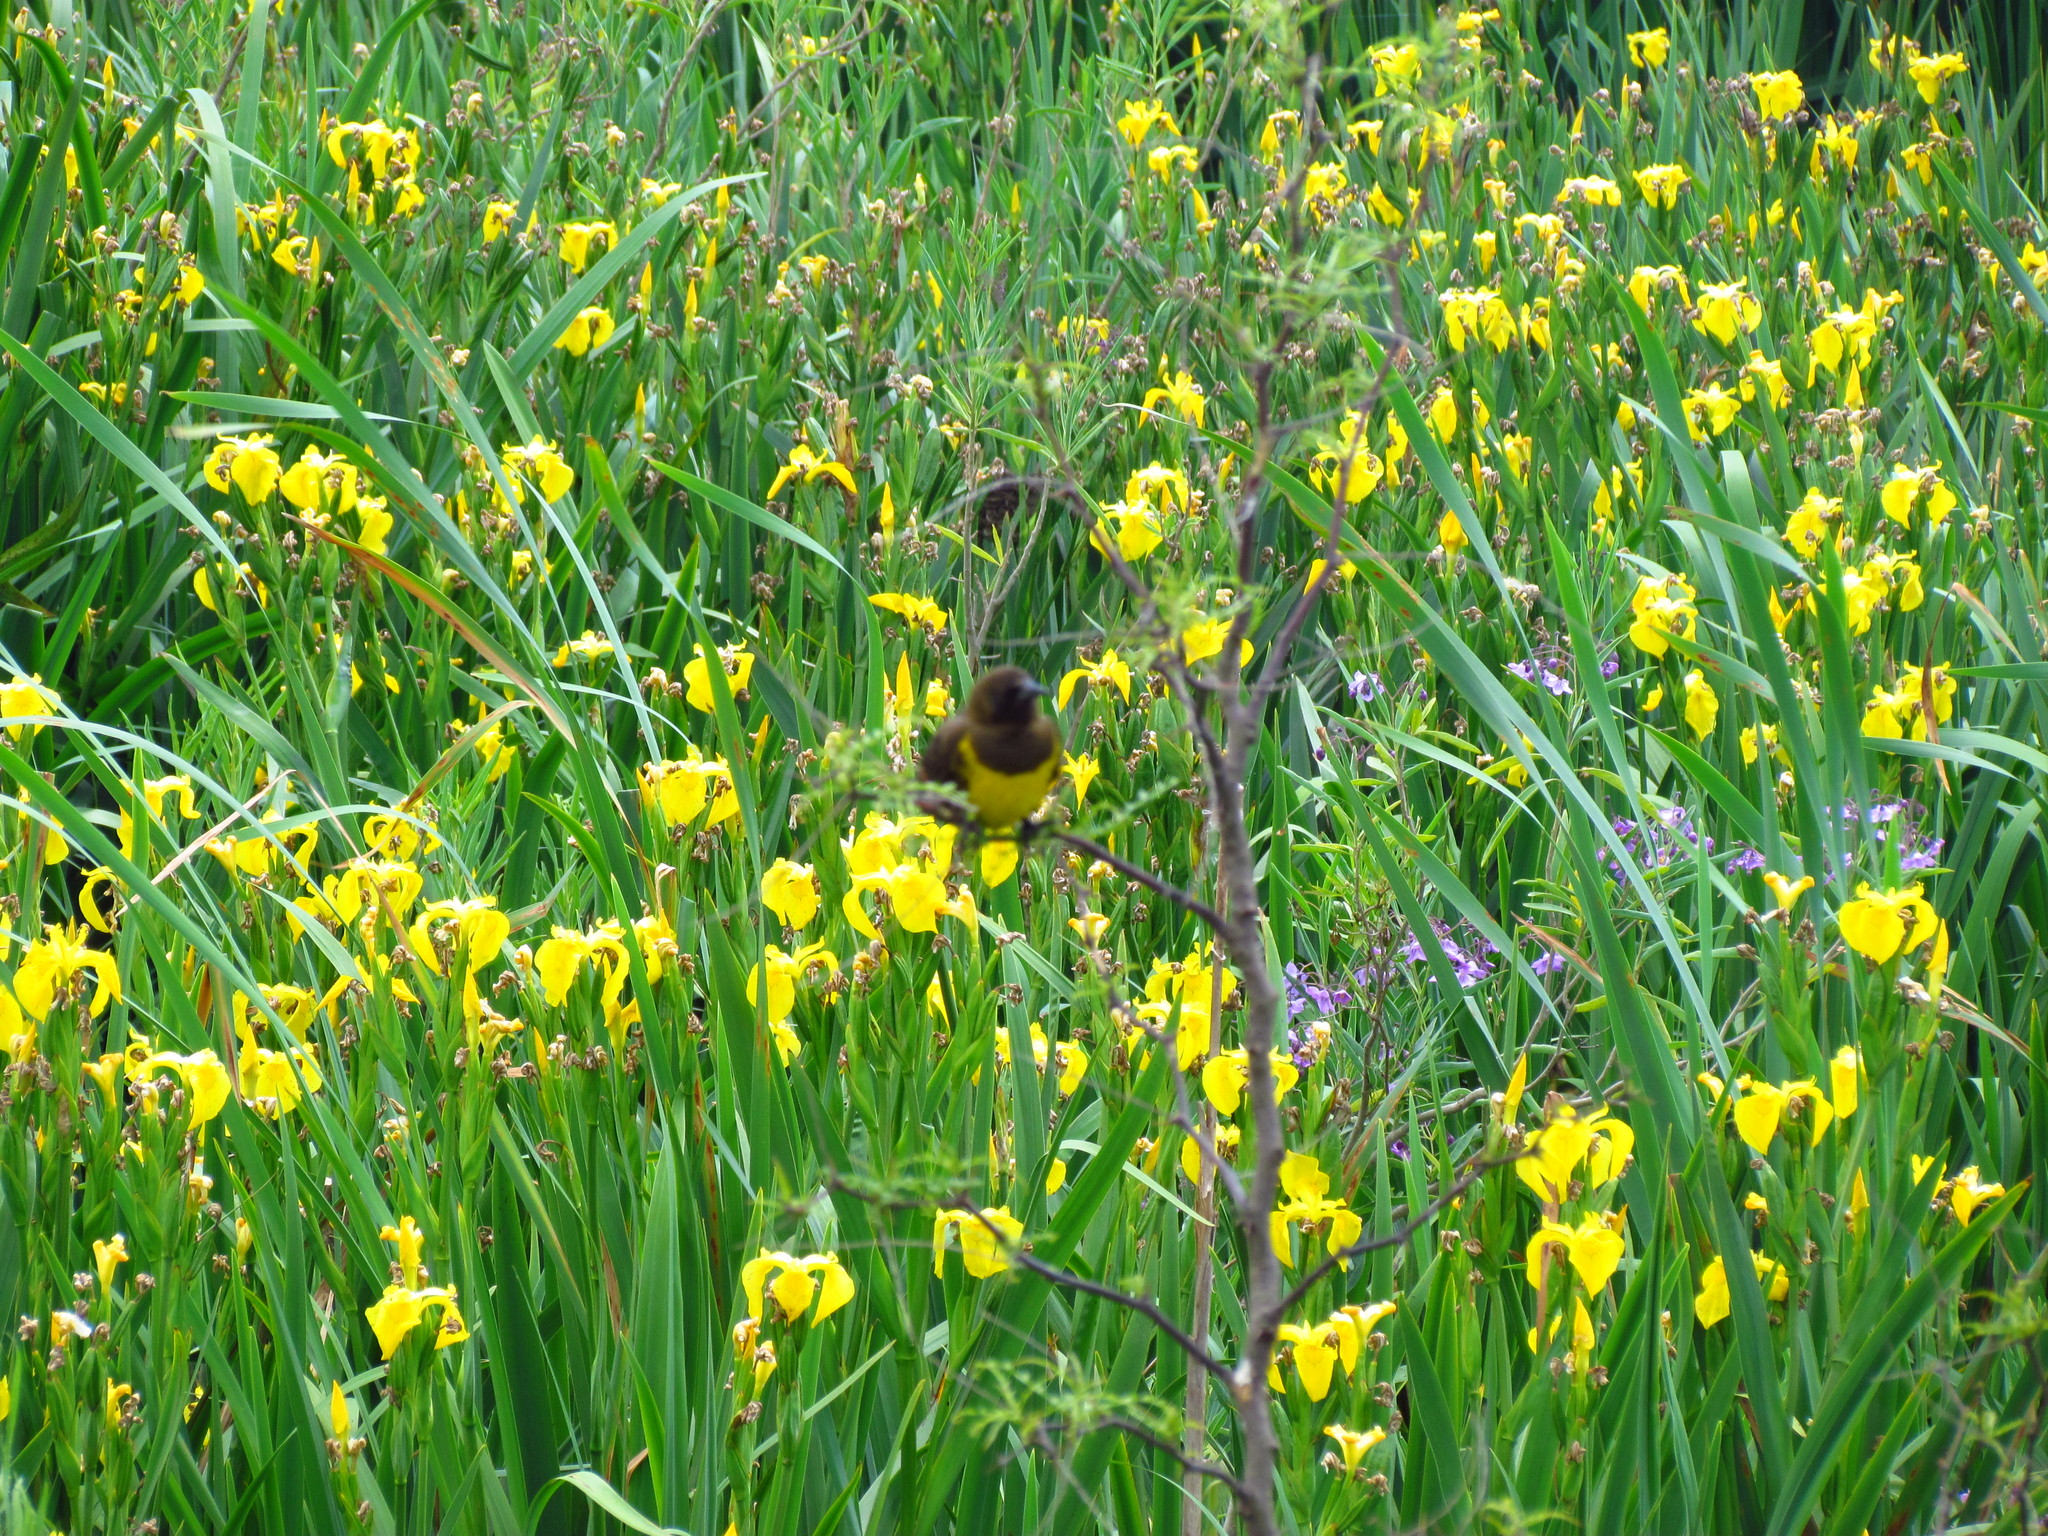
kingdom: Animalia
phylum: Chordata
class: Aves
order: Passeriformes
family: Icteridae
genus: Pseudoleistes
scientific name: Pseudoleistes virescens
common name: Brown-and-yellow marshbird
